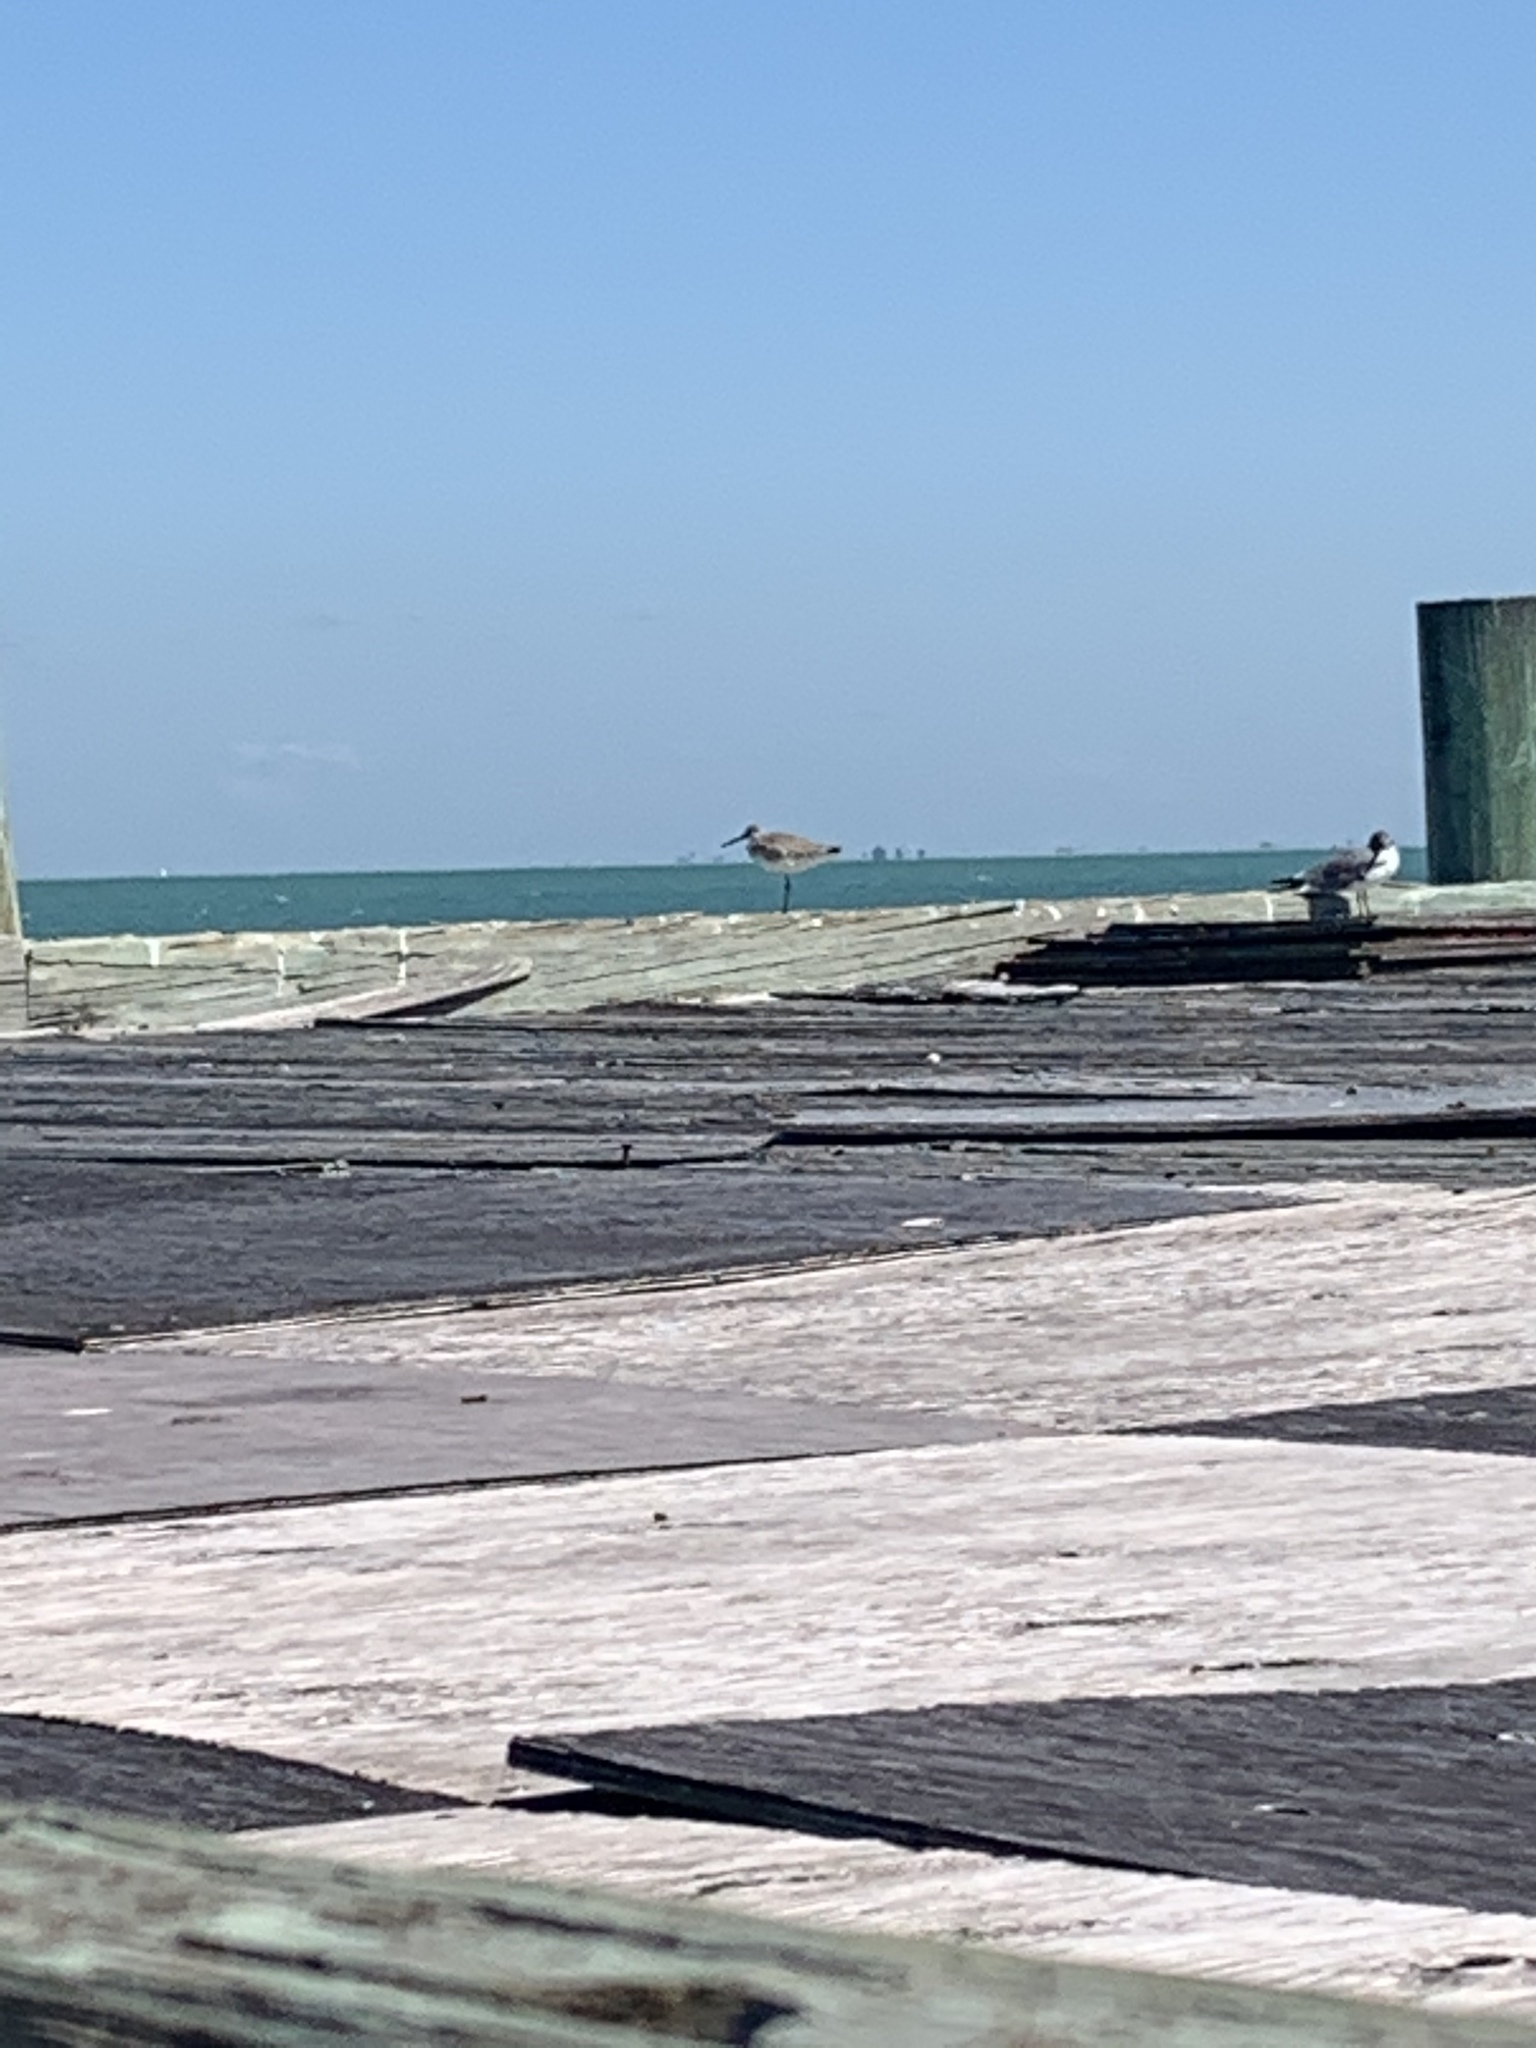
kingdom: Animalia
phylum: Chordata
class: Aves
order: Charadriiformes
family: Scolopacidae
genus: Tringa
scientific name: Tringa semipalmata
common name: Willet
